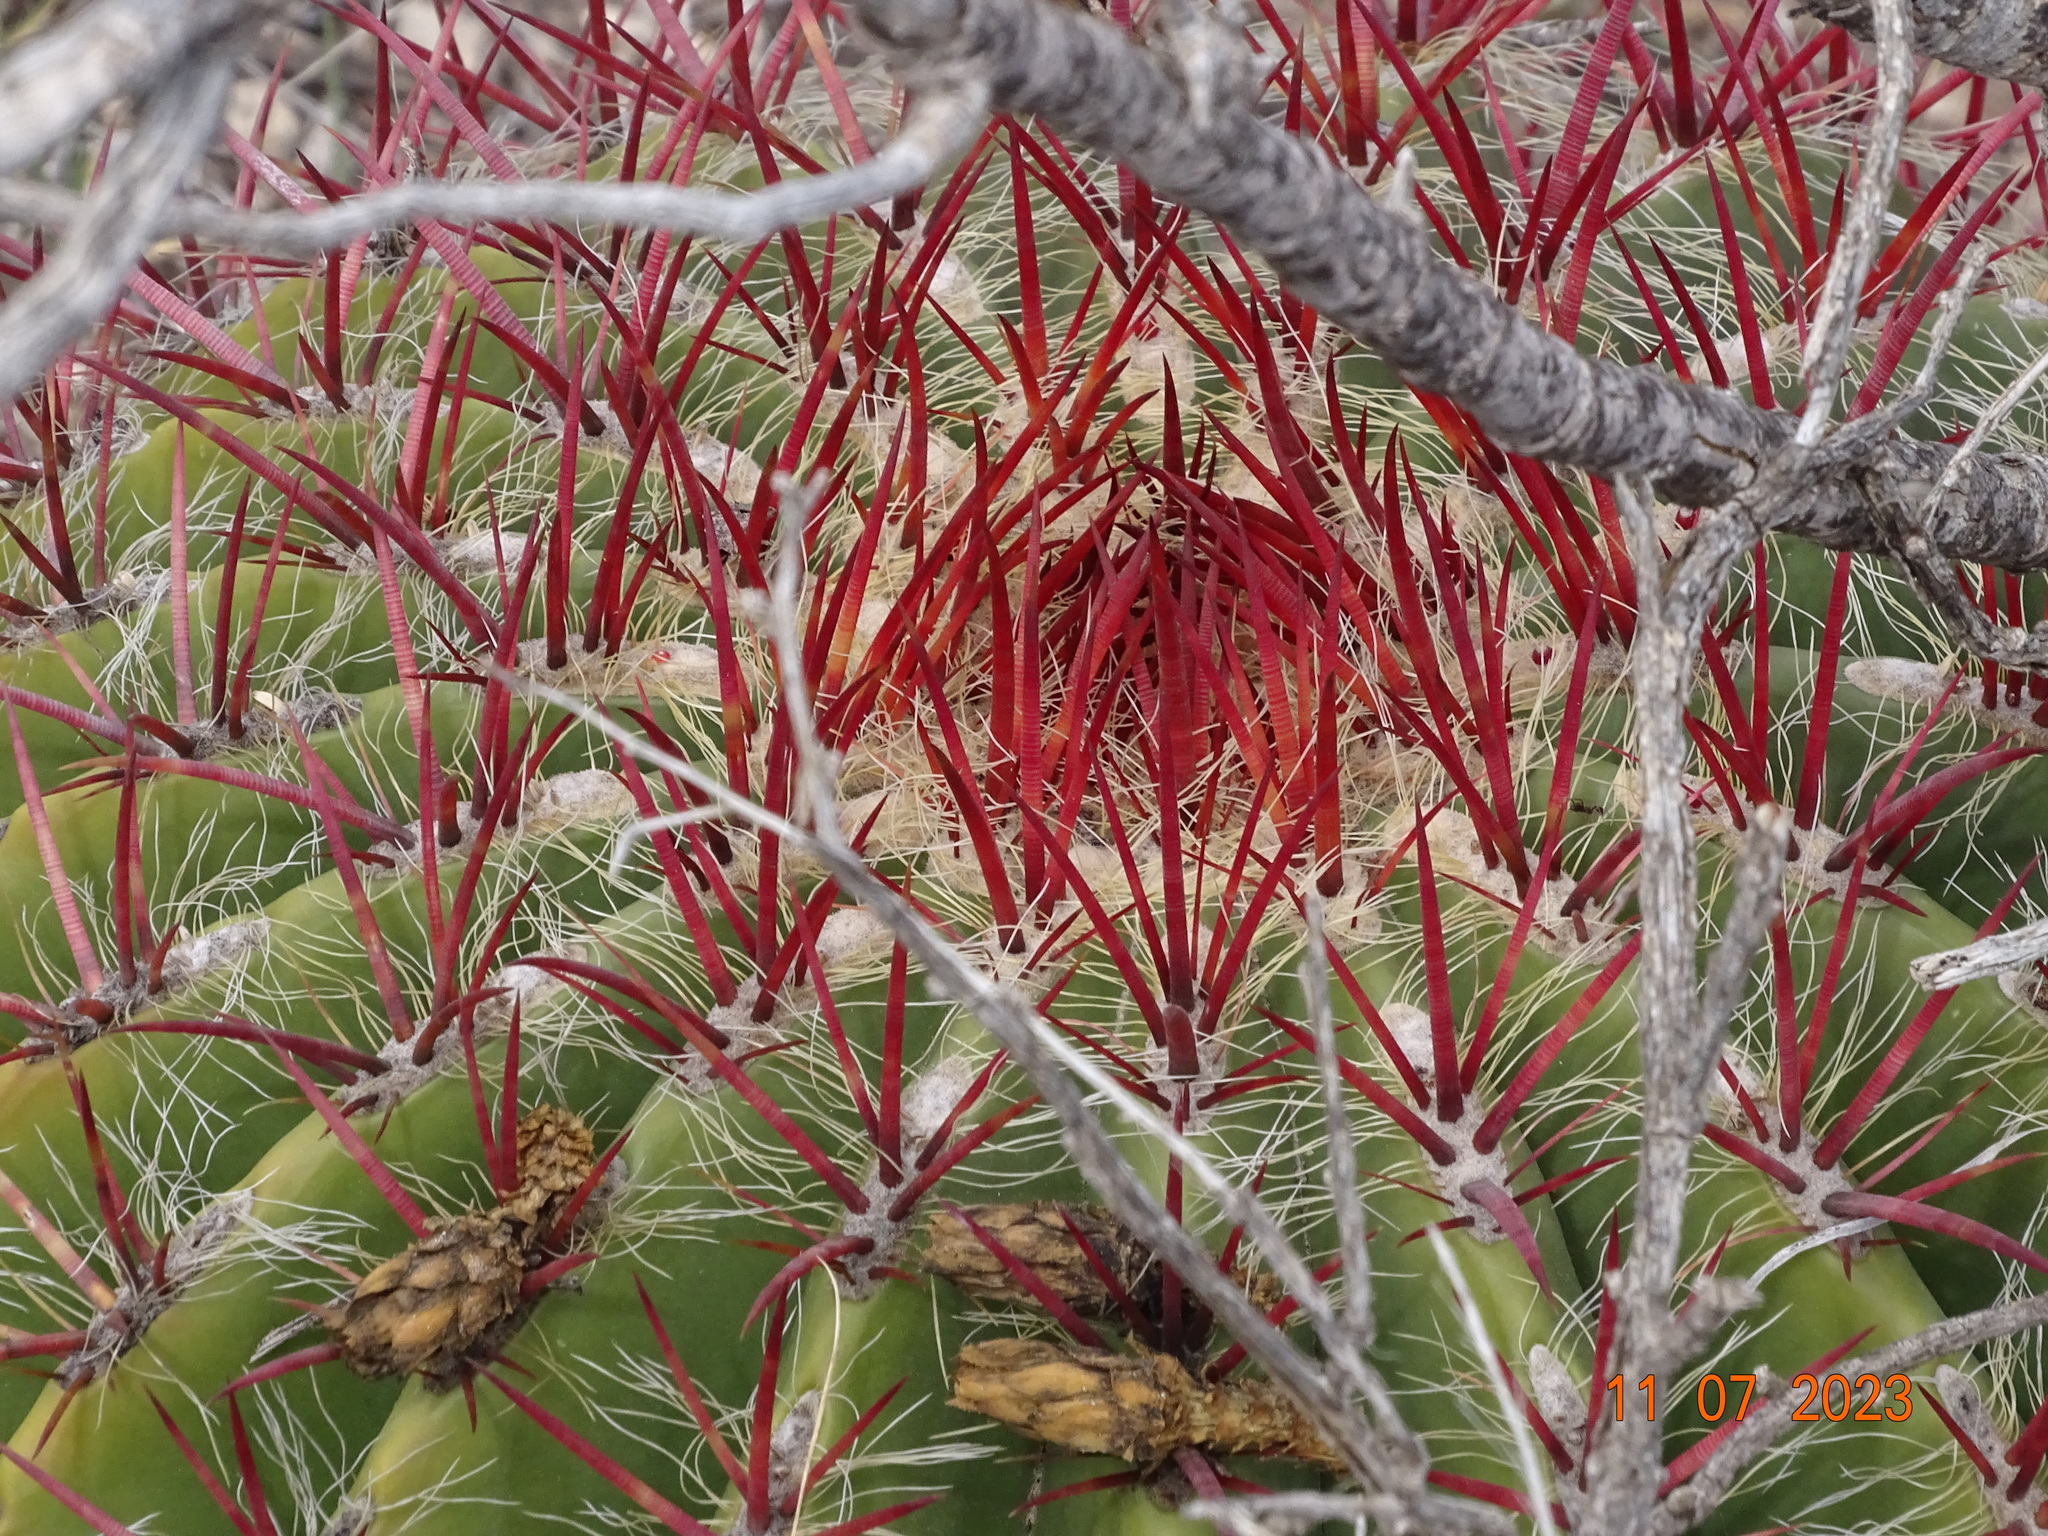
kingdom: Plantae
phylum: Tracheophyta
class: Magnoliopsida
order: Caryophyllales
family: Cactaceae
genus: Ferocactus
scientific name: Ferocactus pilosus
